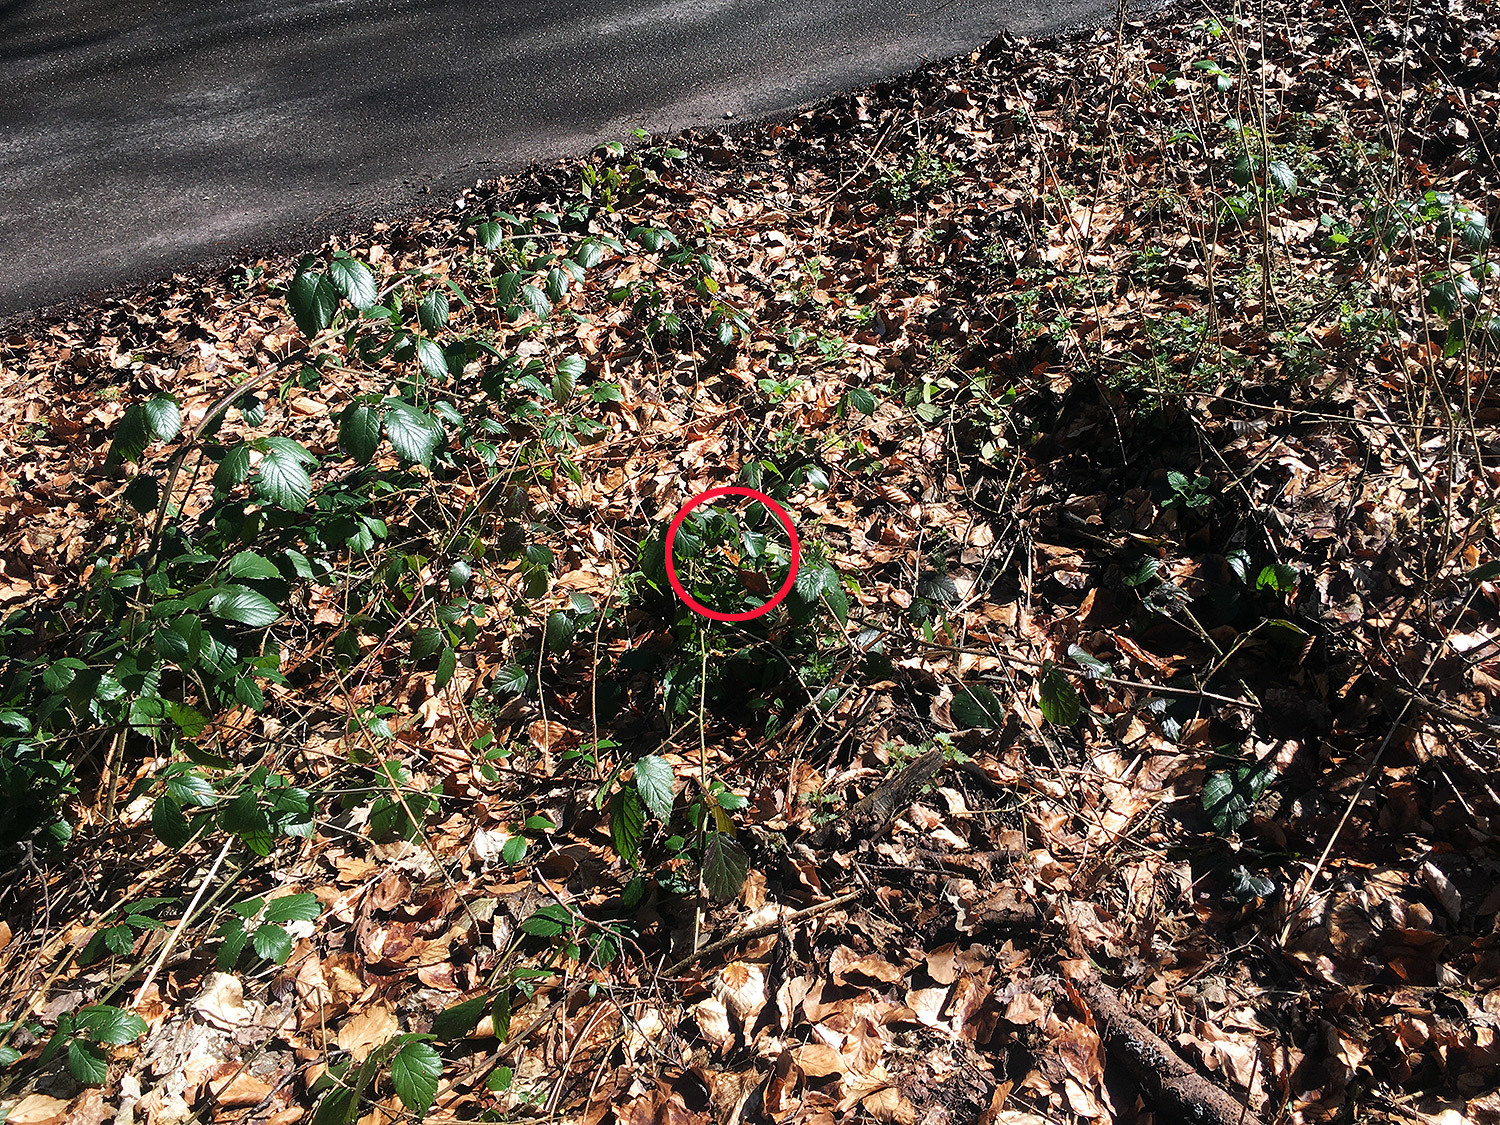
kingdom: Animalia
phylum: Arthropoda
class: Insecta
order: Lepidoptera
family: Nymphalidae
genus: Polygonia
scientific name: Polygonia c-album
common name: Comma
